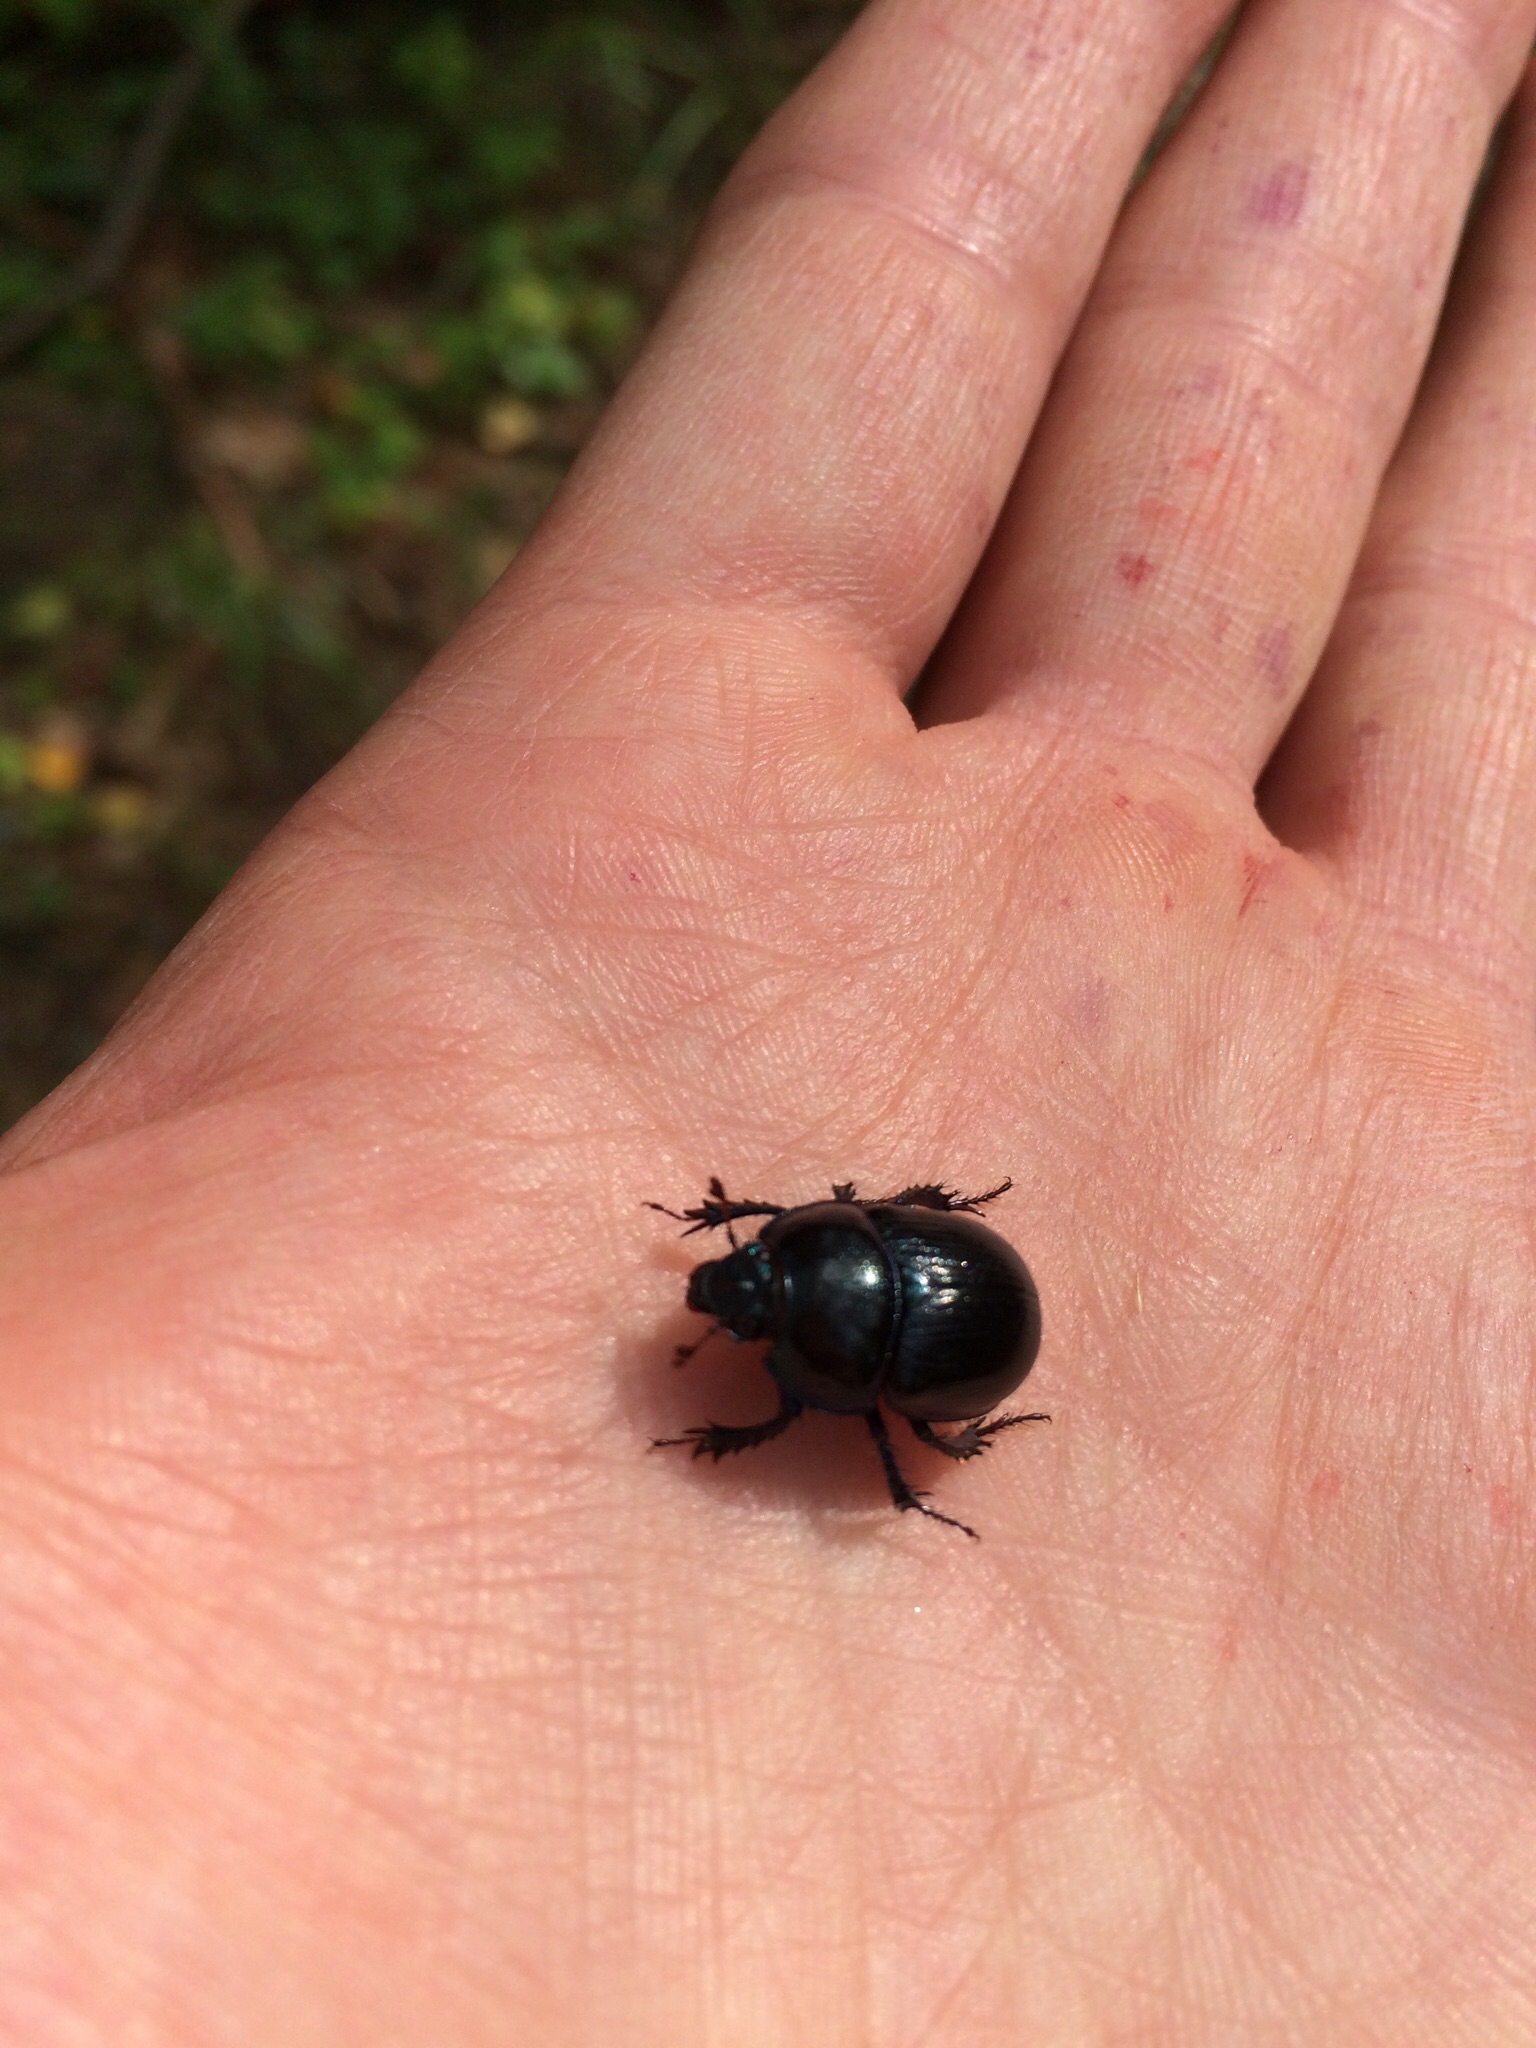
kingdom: Animalia
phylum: Arthropoda
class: Insecta
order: Coleoptera
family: Geotrupidae
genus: Anoplotrupes
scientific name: Anoplotrupes stercorosus
